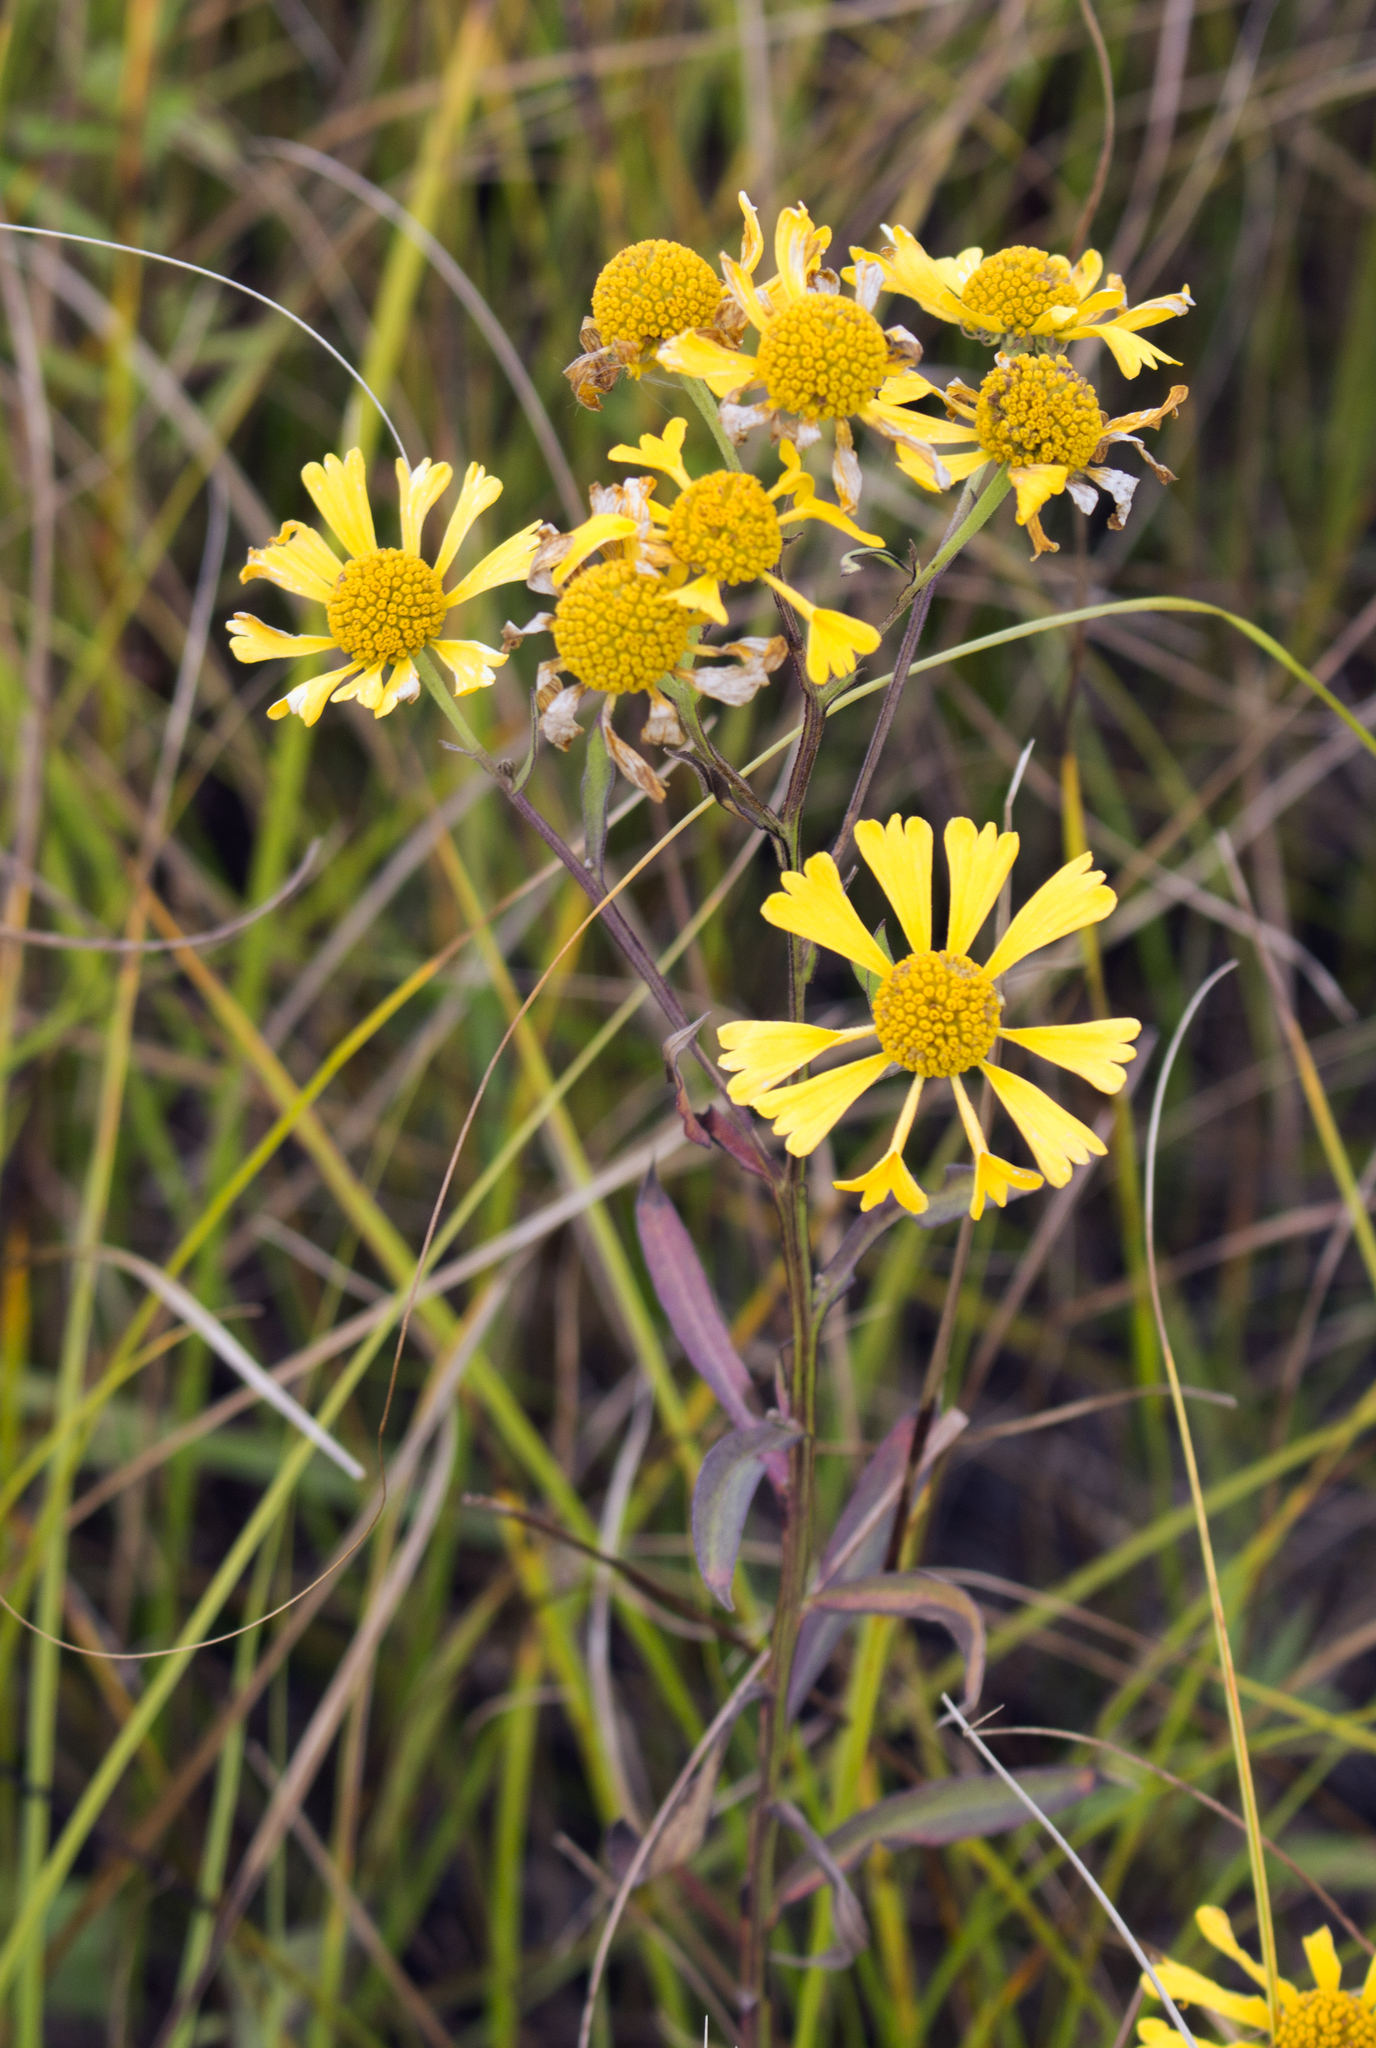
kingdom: Plantae
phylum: Tracheophyta
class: Magnoliopsida
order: Asterales
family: Asteraceae
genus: Helenium
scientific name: Helenium autumnale
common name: Sneezeweed
